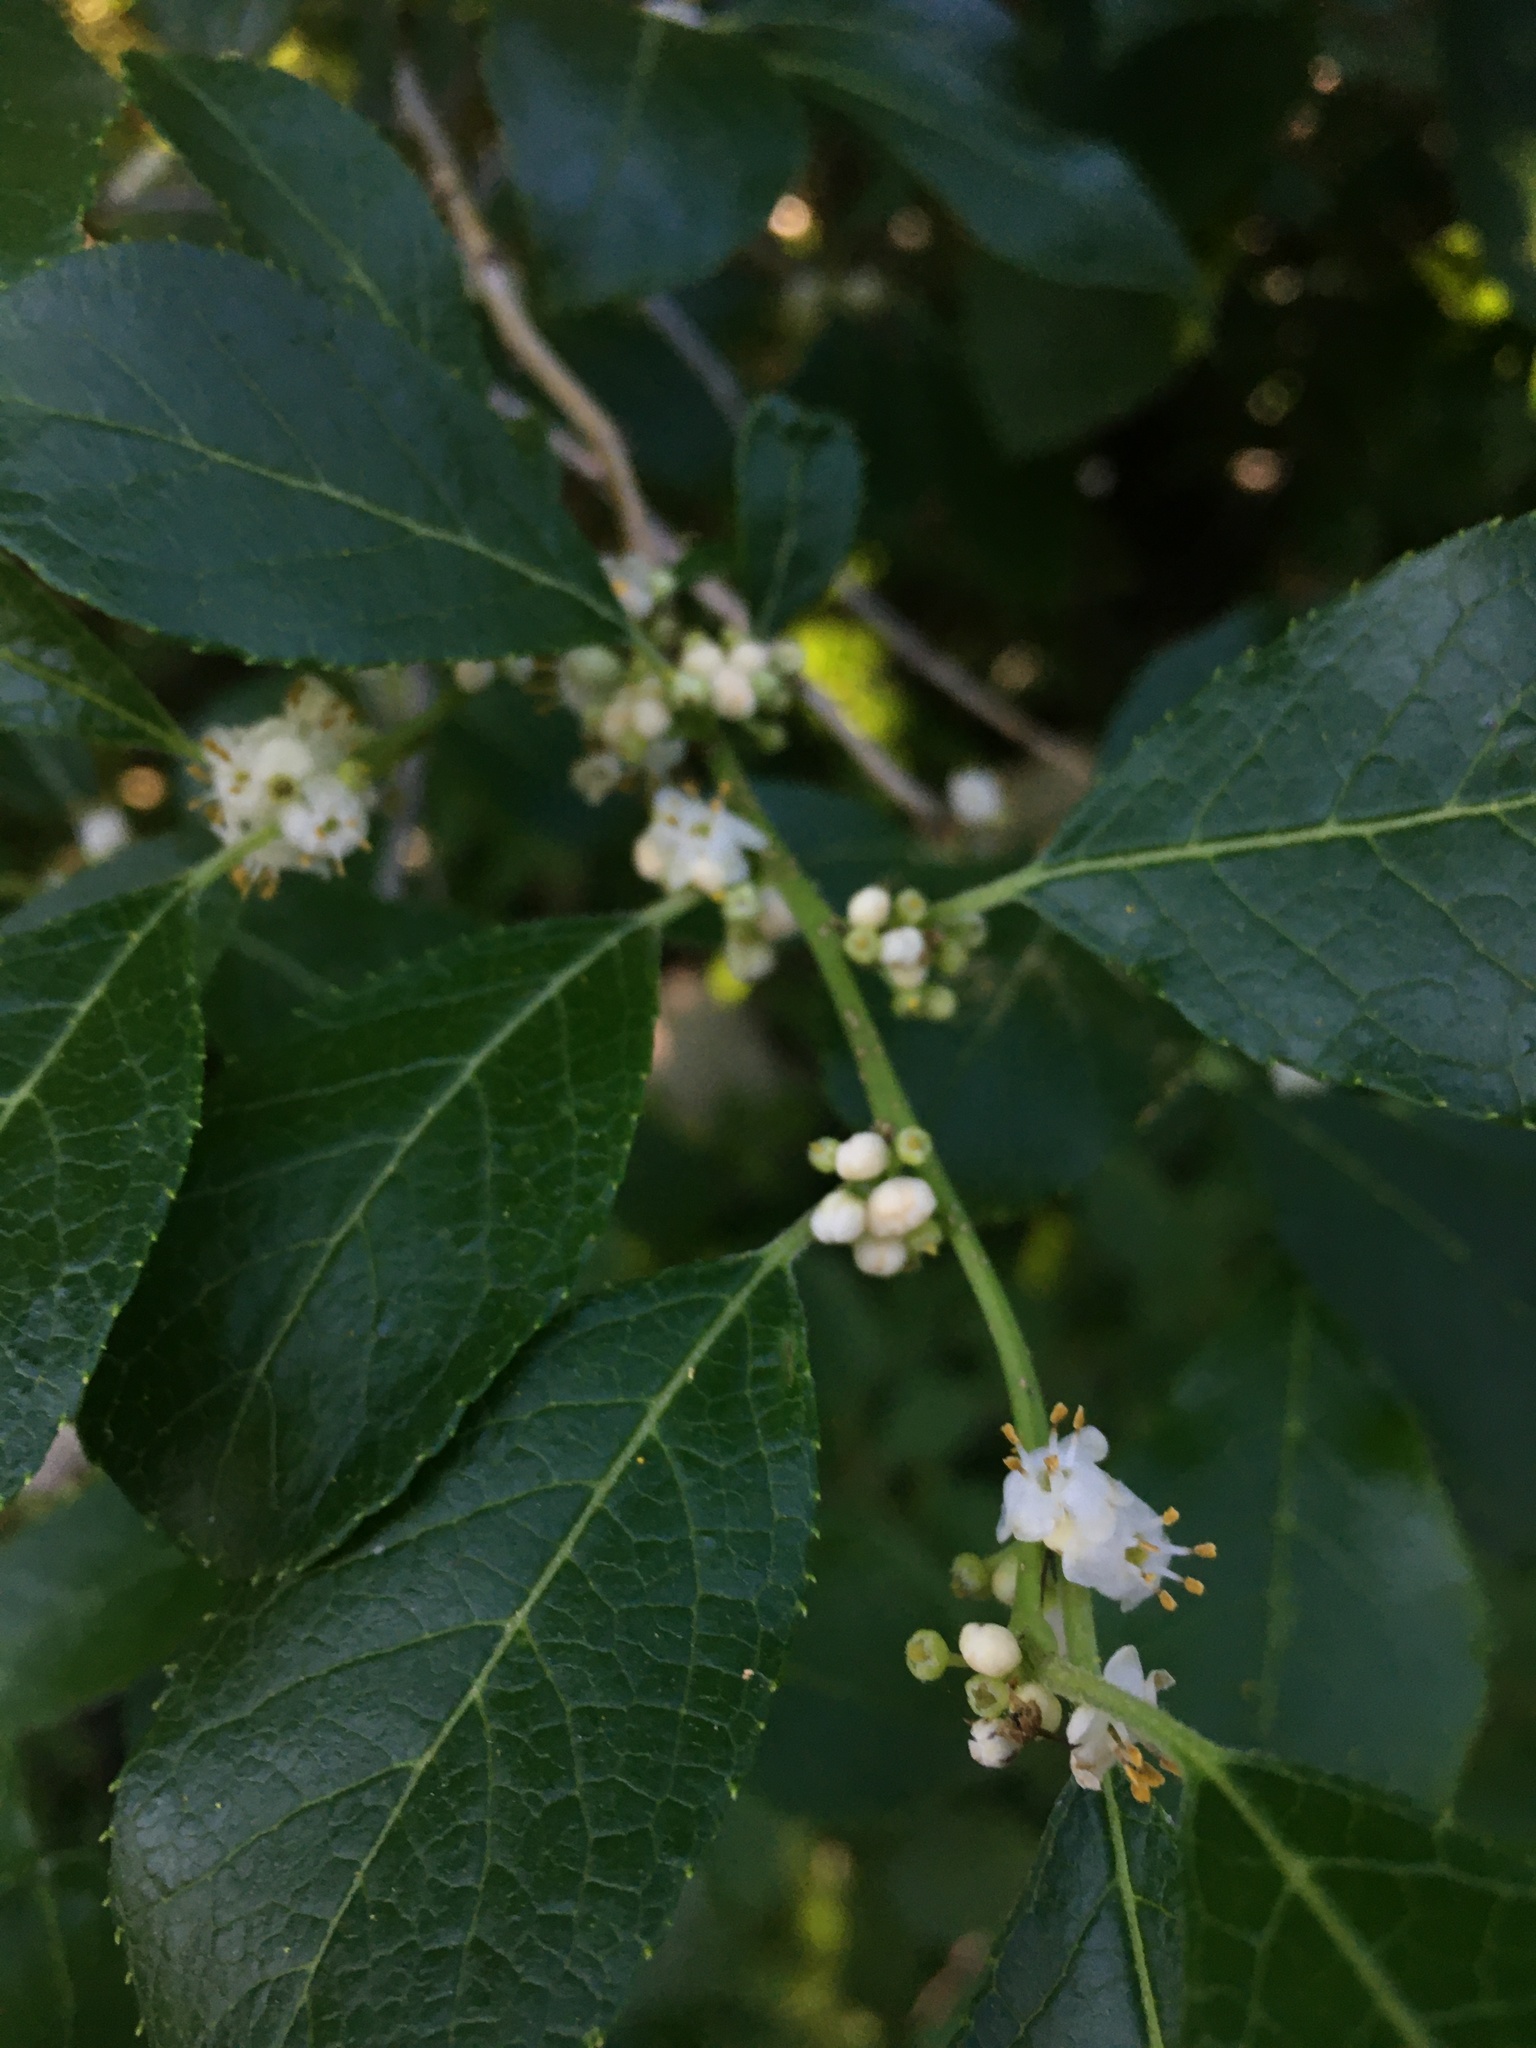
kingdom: Plantae
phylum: Tracheophyta
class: Magnoliopsida
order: Aquifoliales
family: Aquifoliaceae
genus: Ilex
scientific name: Ilex verticillata
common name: Virginia winterberry
